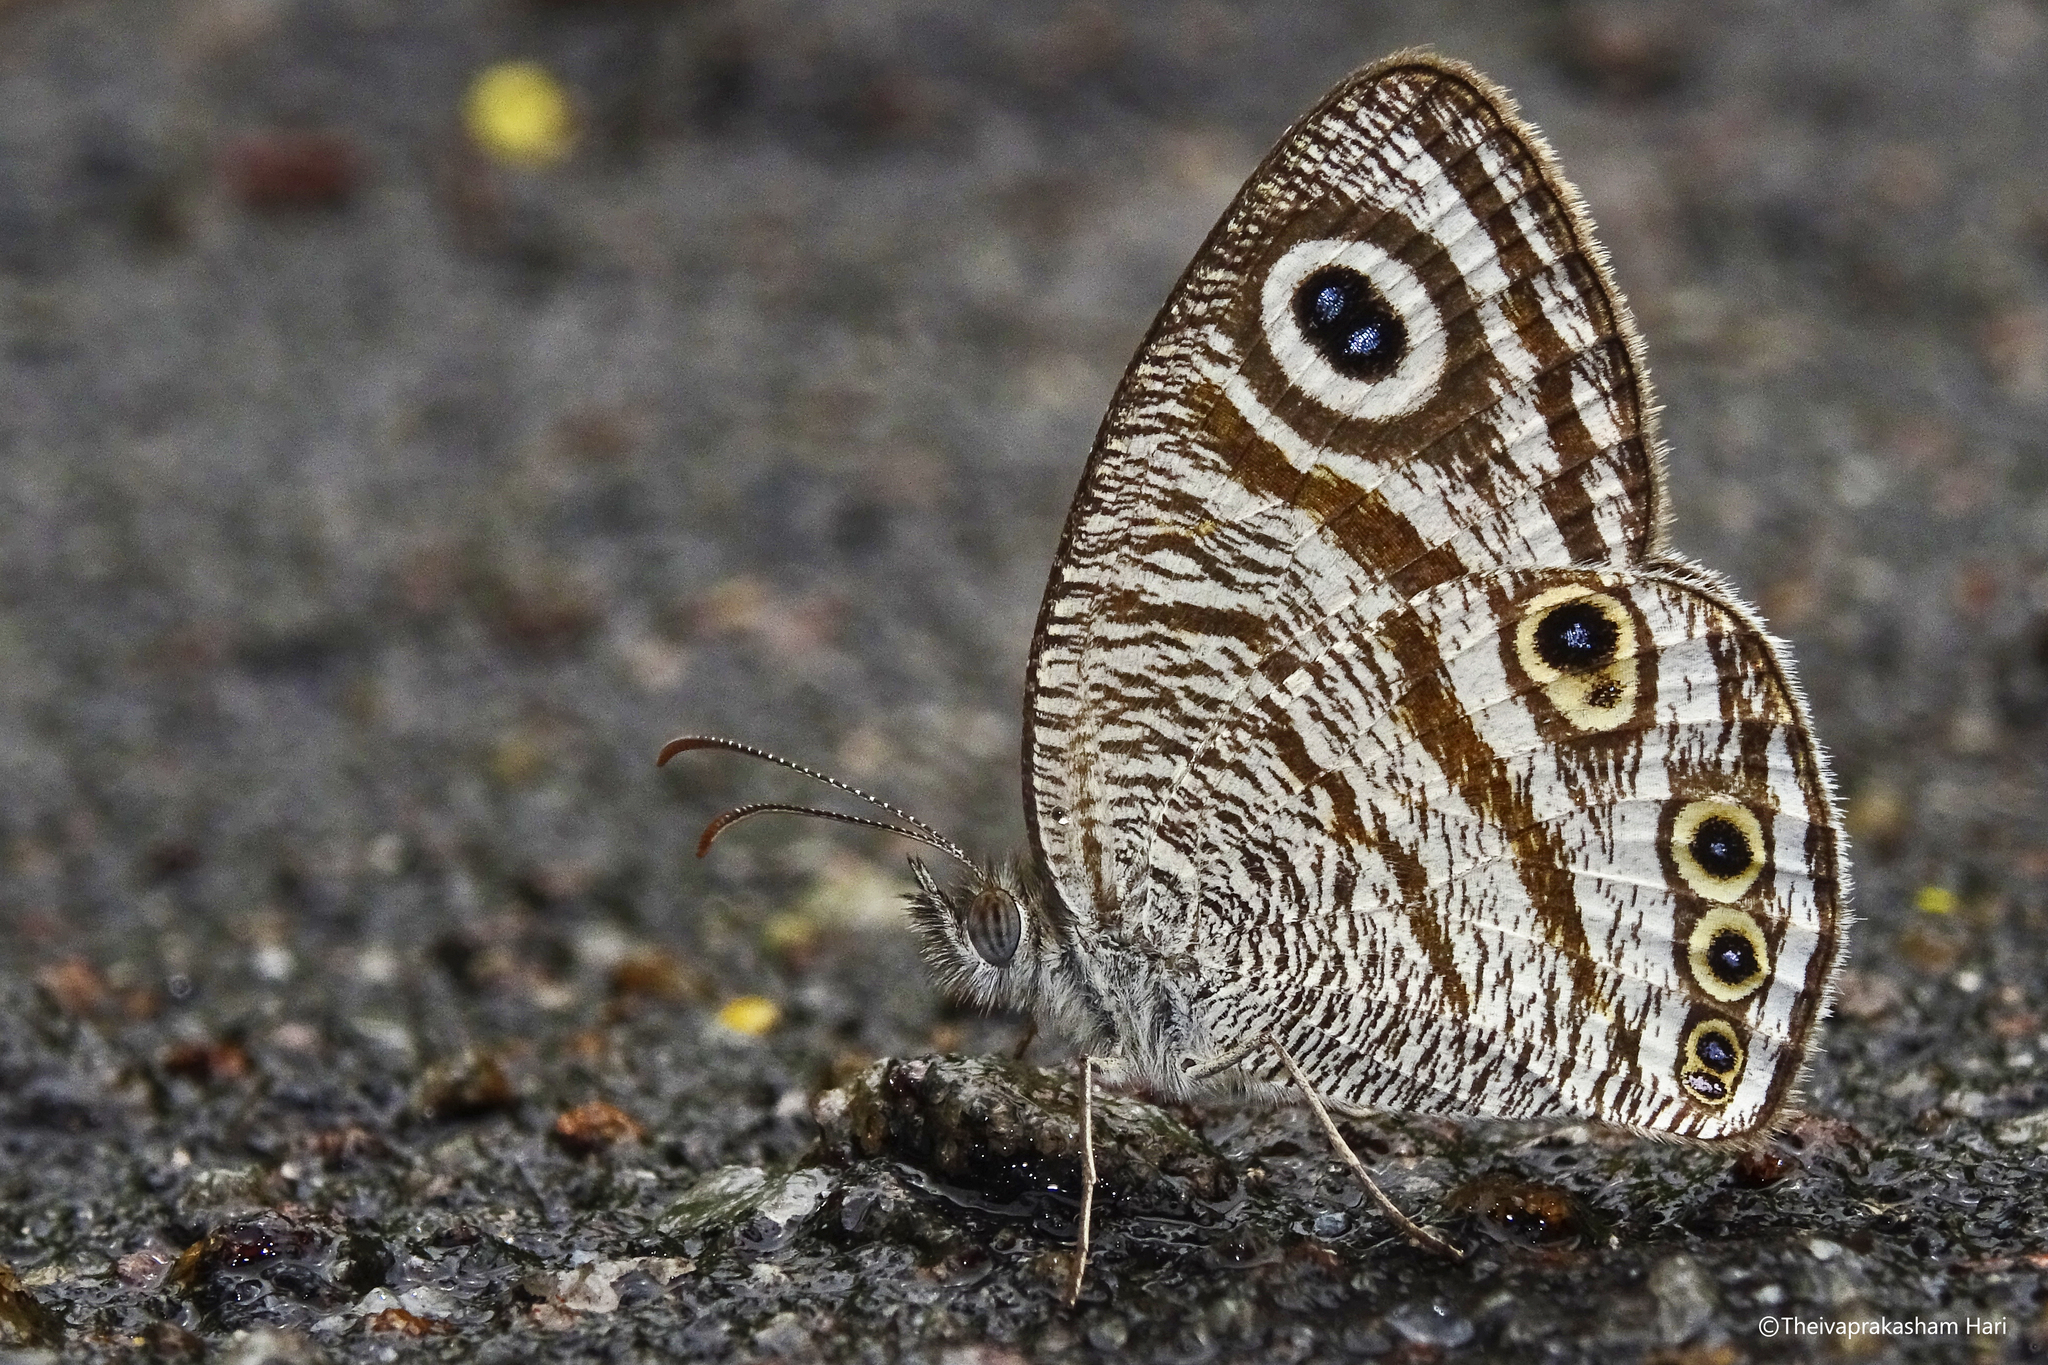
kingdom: Animalia
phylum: Arthropoda
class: Insecta
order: Lepidoptera
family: Nymphalidae
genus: Ypthima
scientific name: Ypthima avanta
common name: Jewel five-ring
